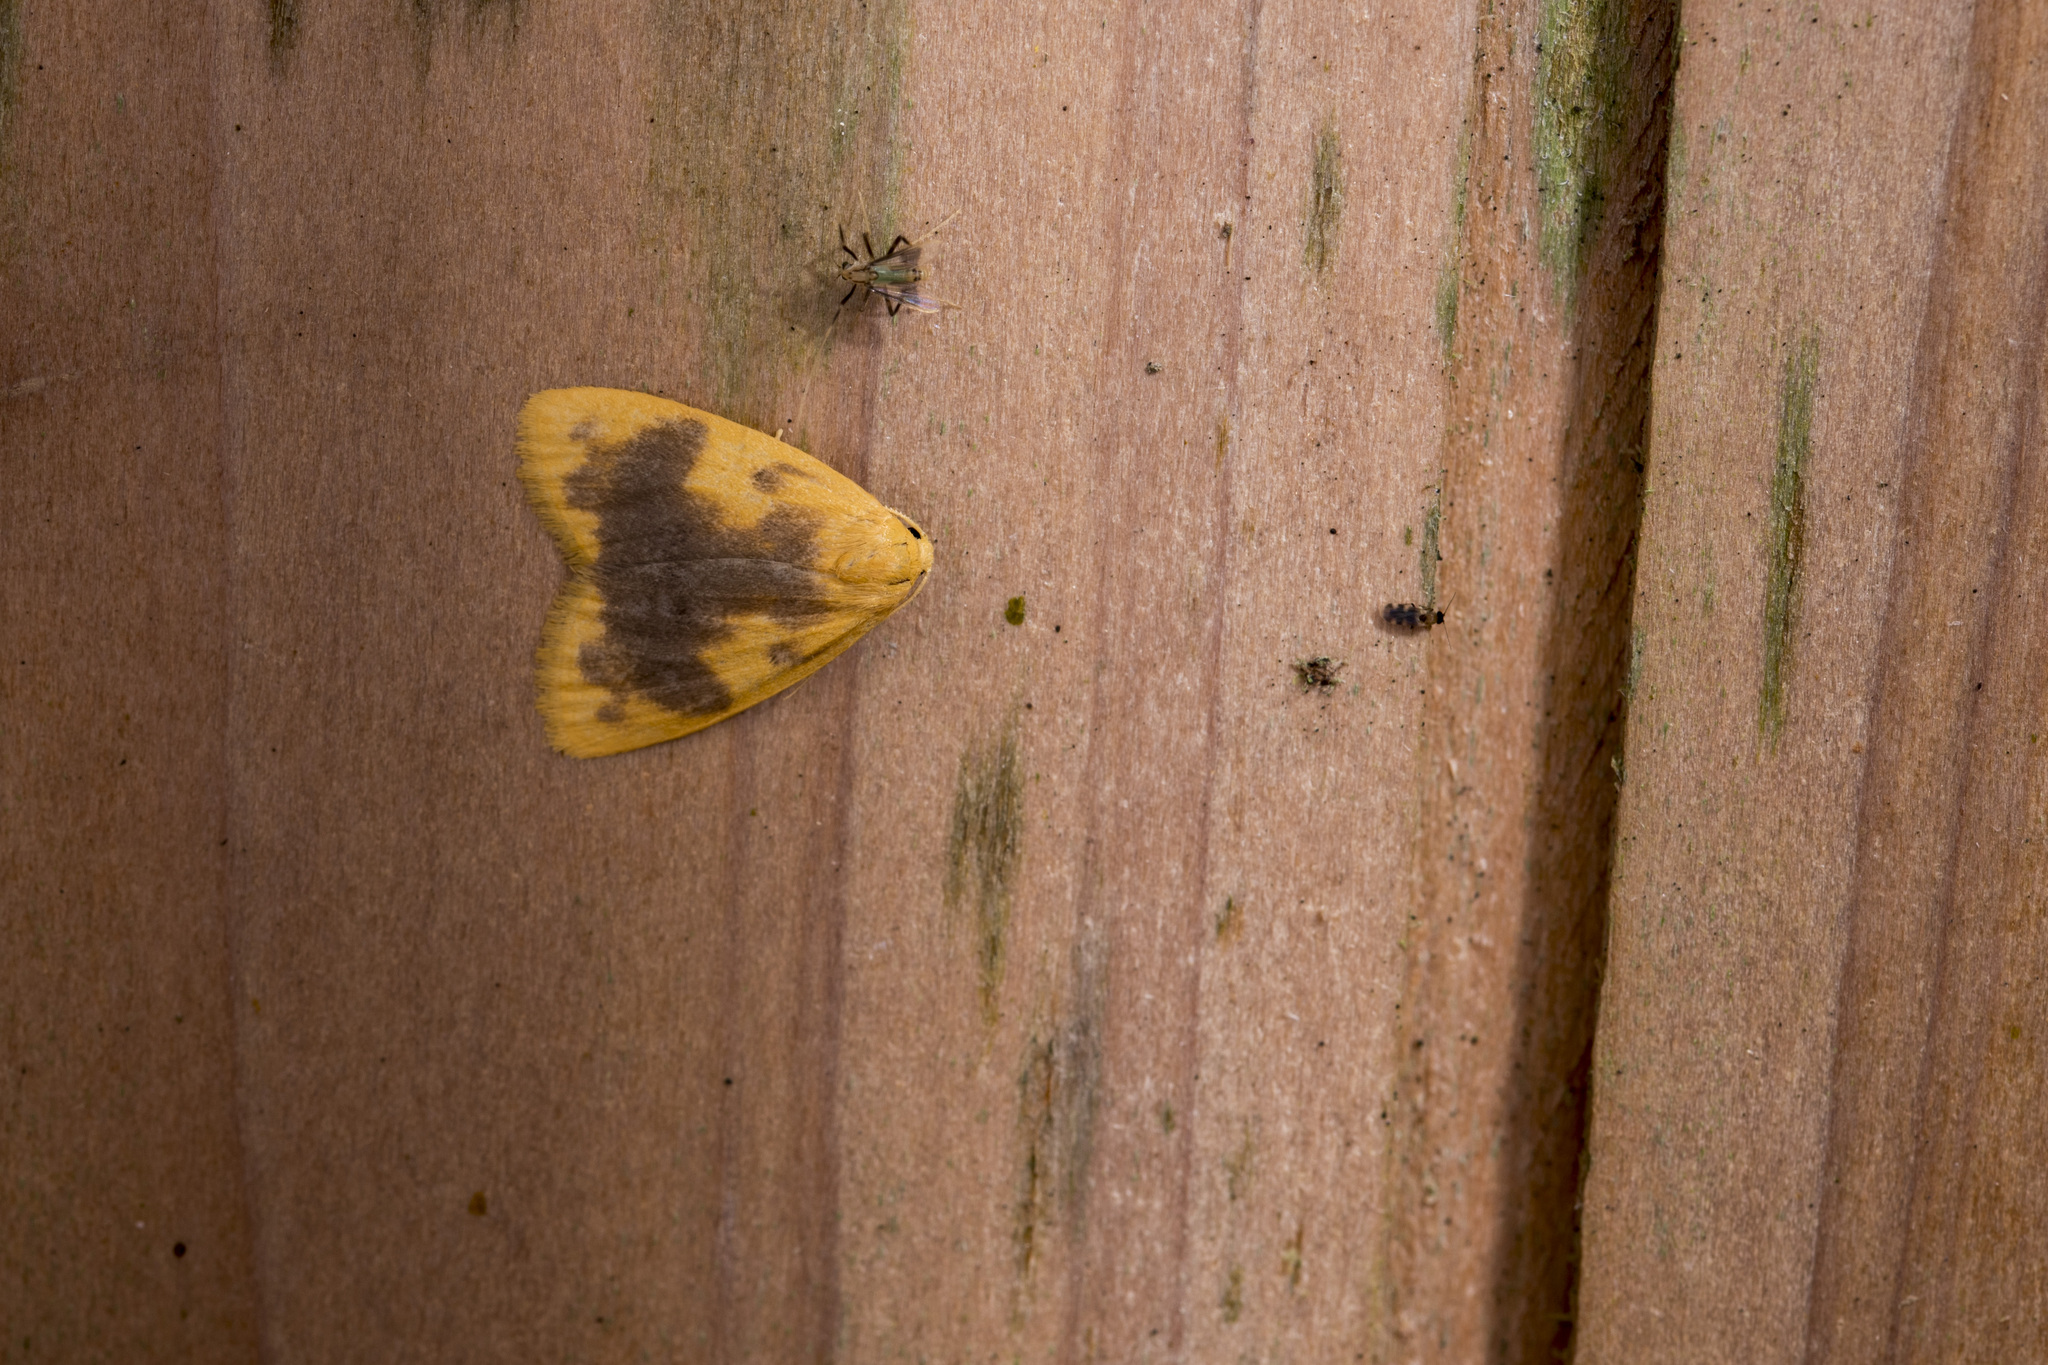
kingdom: Animalia
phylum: Arthropoda
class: Insecta
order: Lepidoptera
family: Erebidae
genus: Nudina
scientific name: Nudina artaxidia
